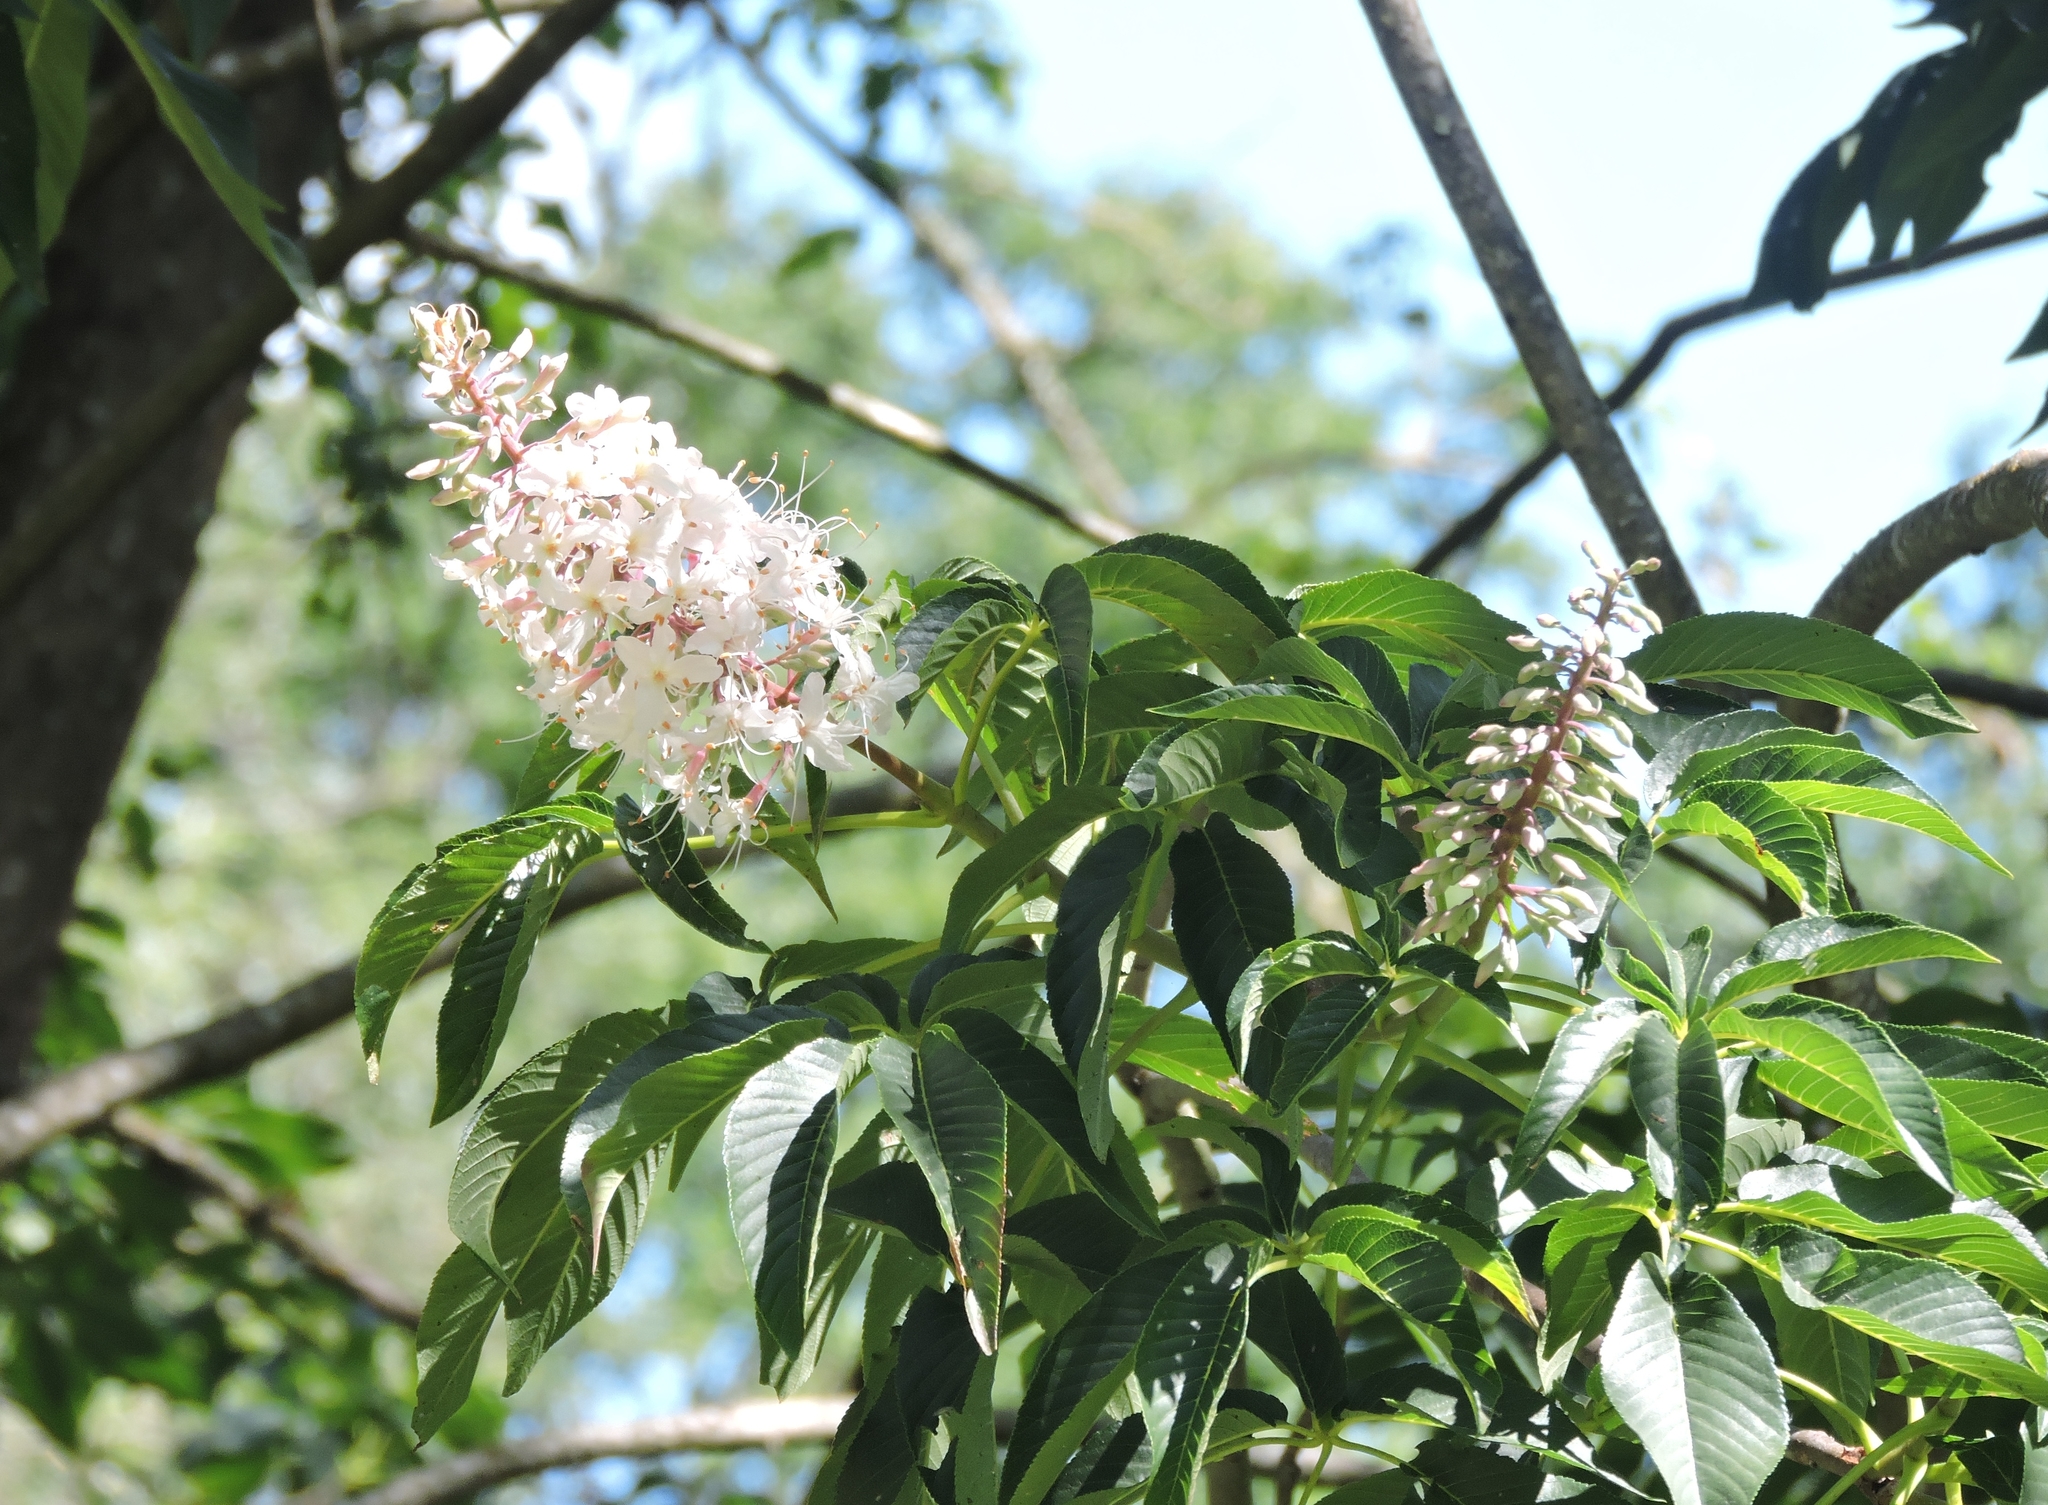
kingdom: Plantae
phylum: Tracheophyta
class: Magnoliopsida
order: Sapindales
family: Sapindaceae
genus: Aesculus
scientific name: Aesculus californica
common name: California buckeye
